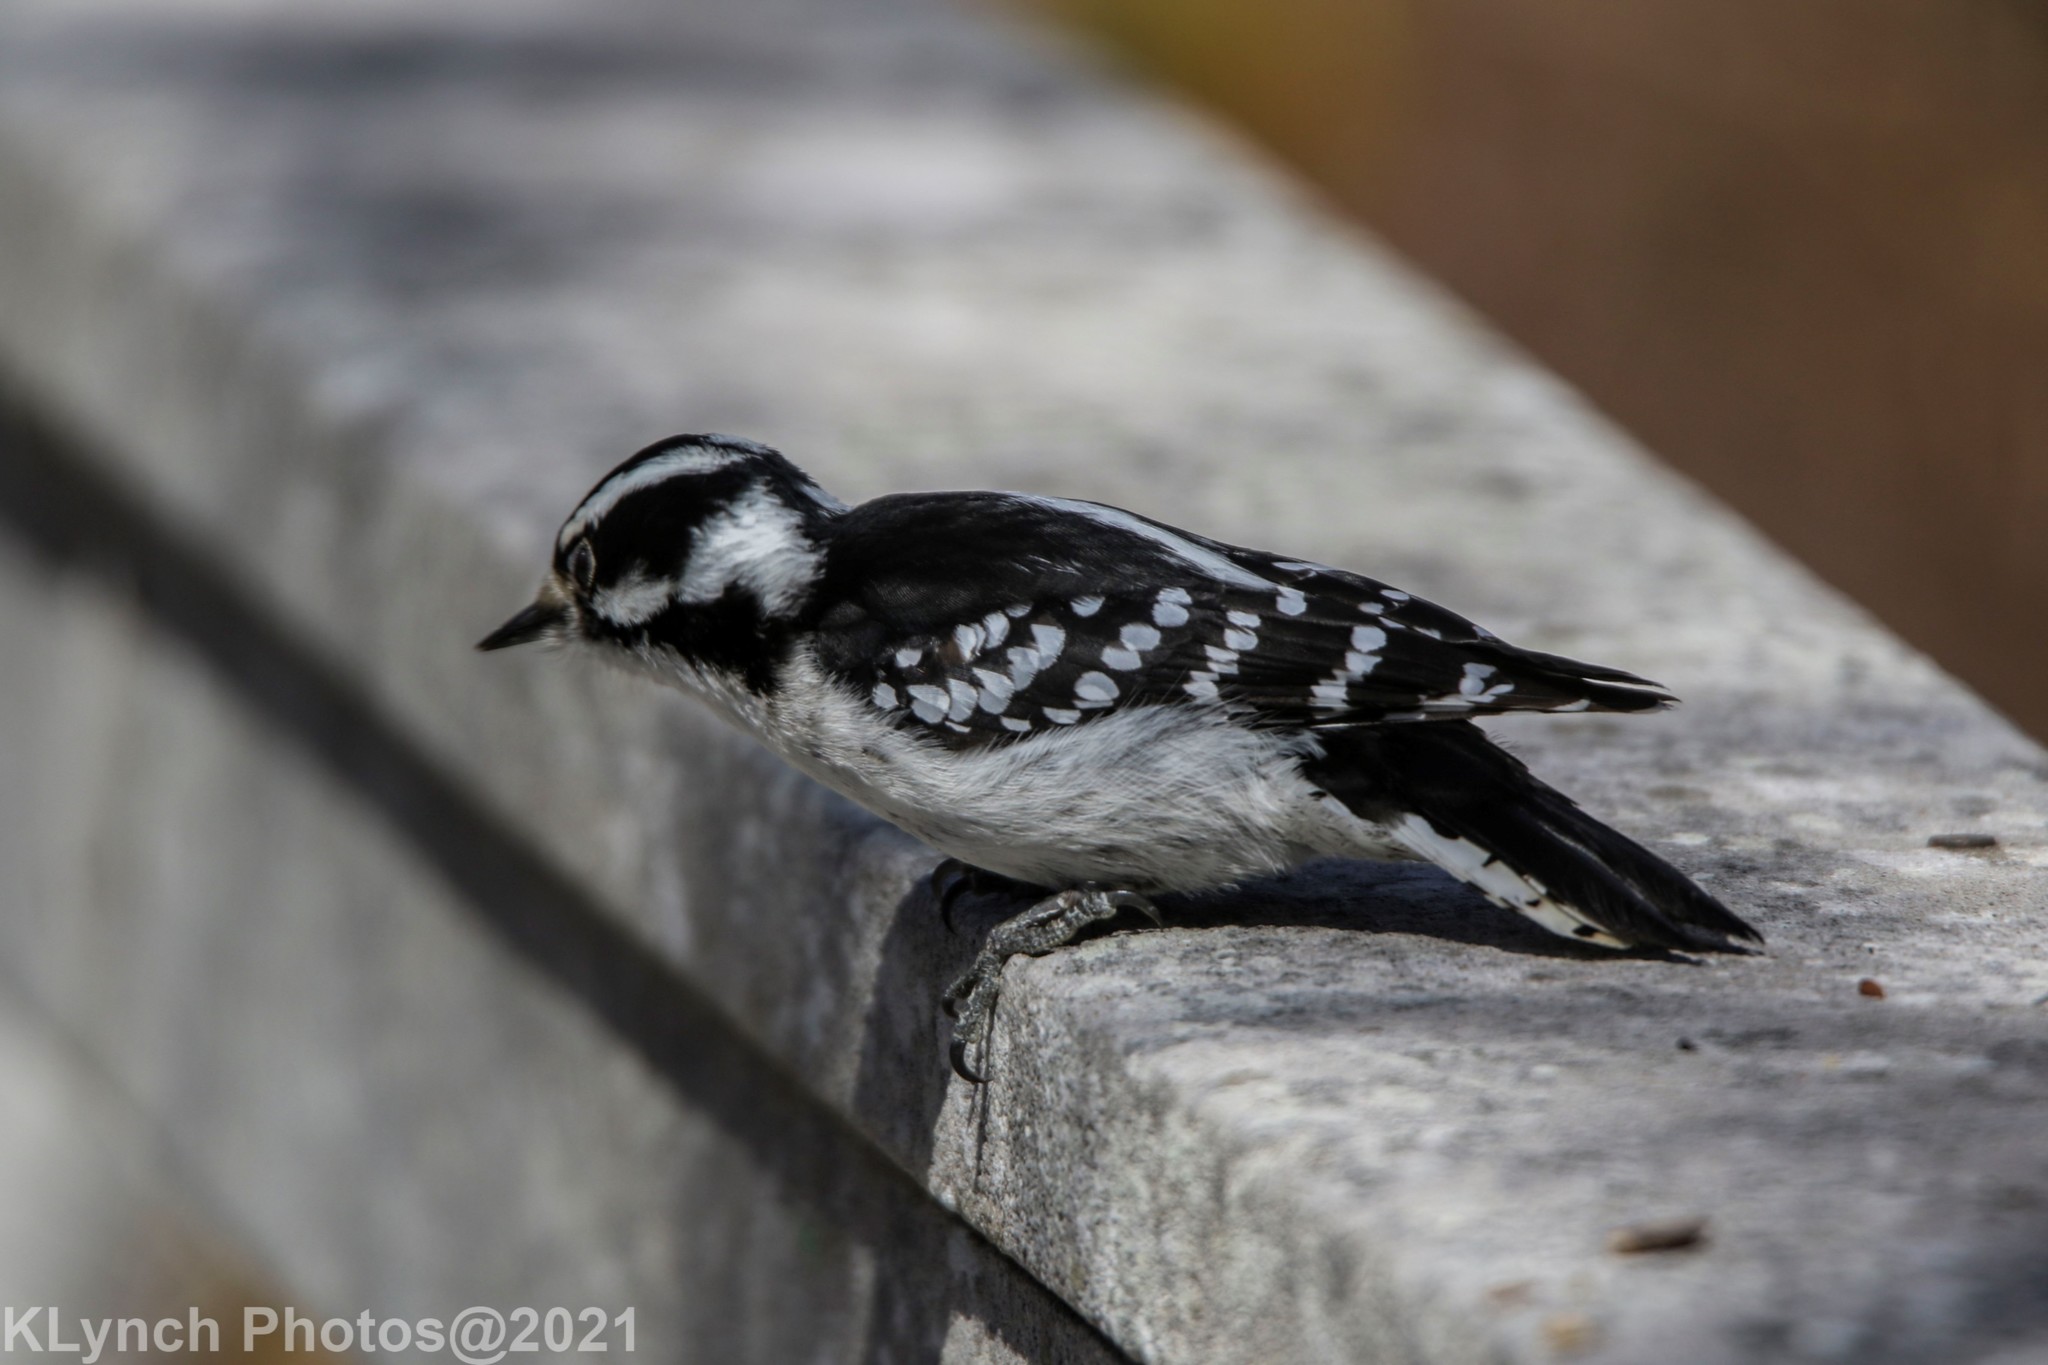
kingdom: Animalia
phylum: Chordata
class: Aves
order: Piciformes
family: Picidae
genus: Dryobates
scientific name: Dryobates pubescens
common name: Downy woodpecker
